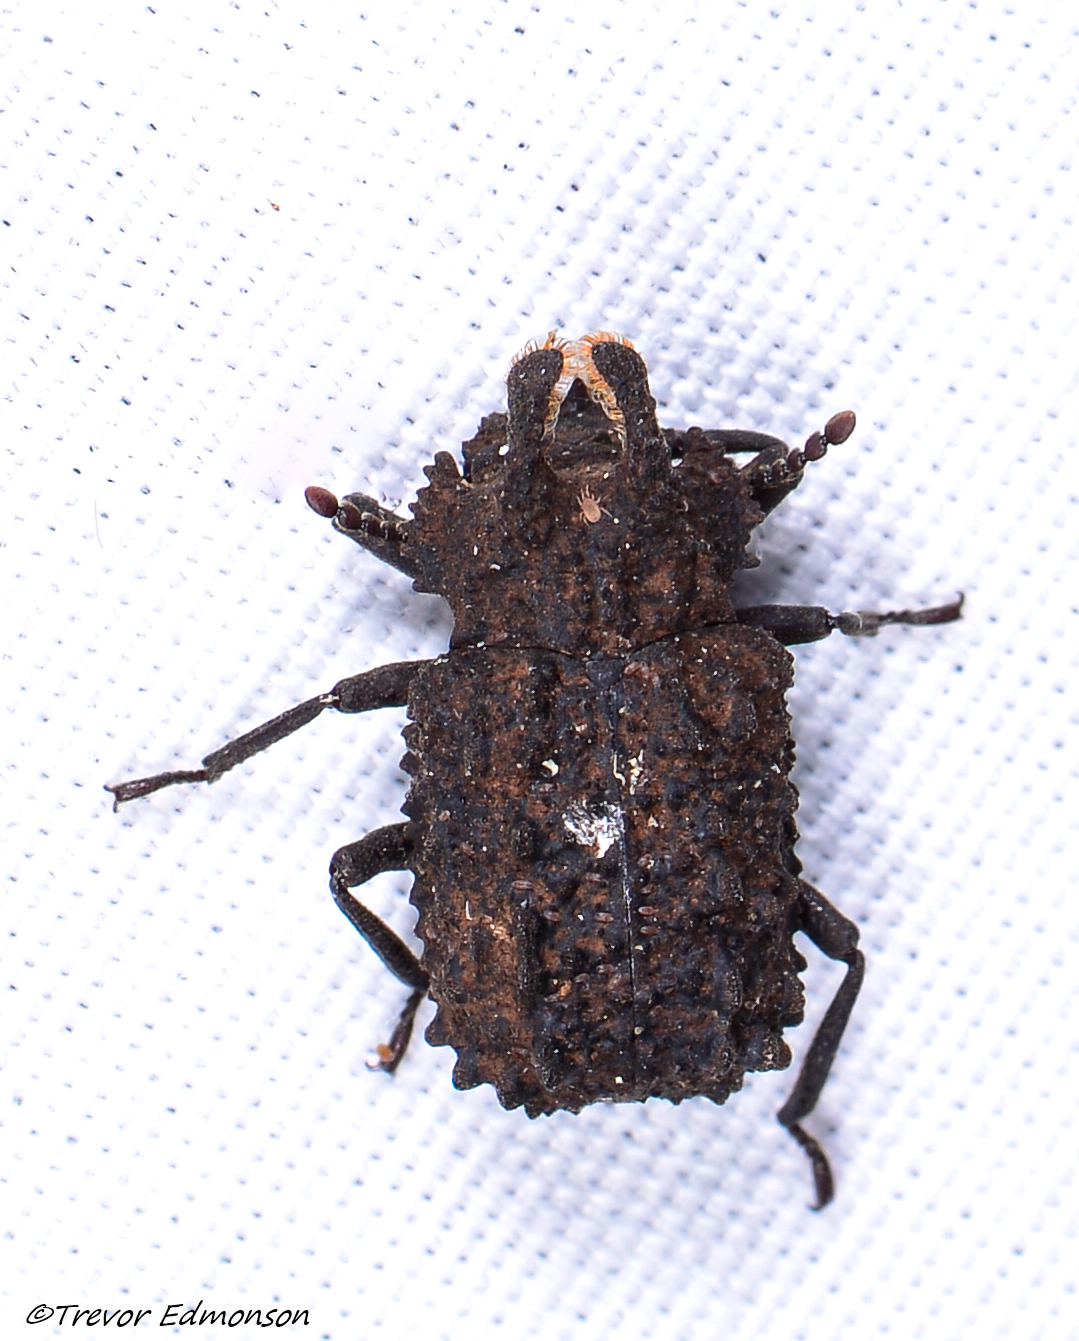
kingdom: Animalia
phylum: Arthropoda
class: Insecta
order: Coleoptera
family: Tenebrionidae
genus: Gnatocerus
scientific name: Gnatocerus cornutus
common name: Broad-horned flour beetle
